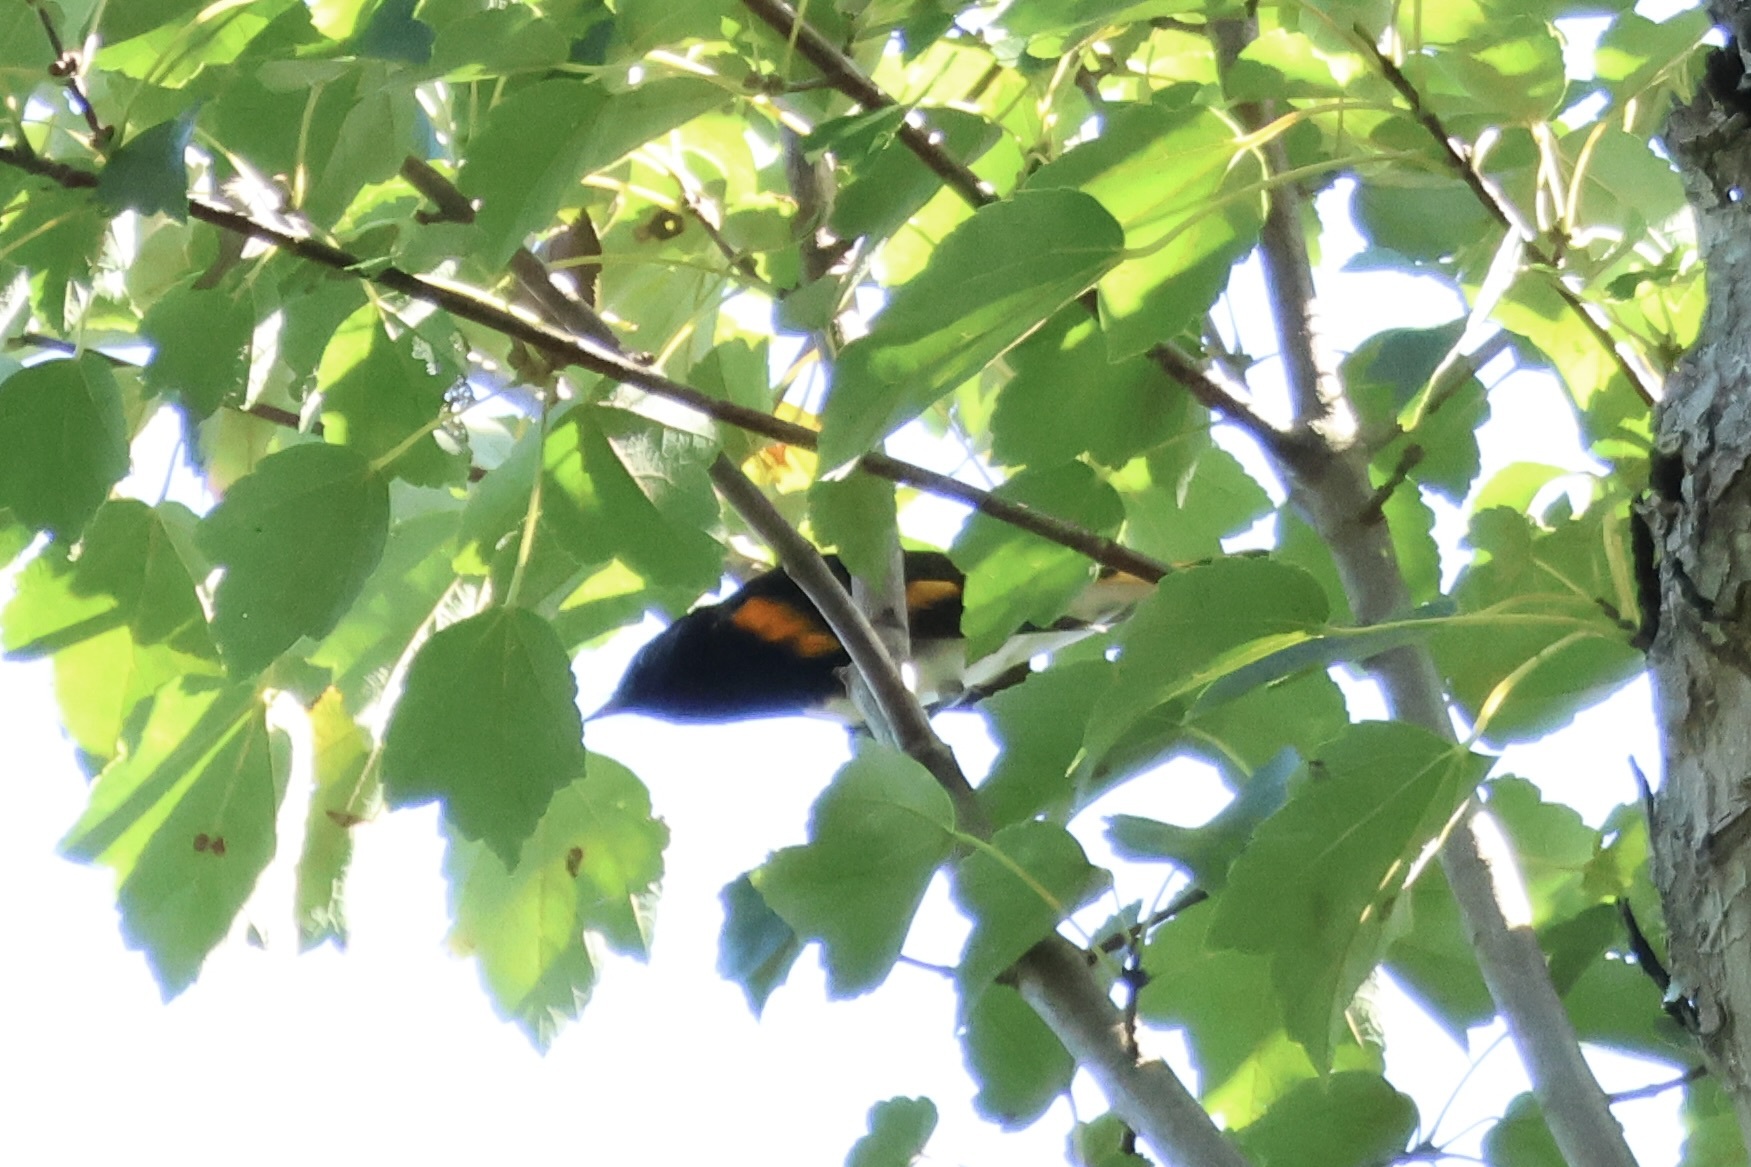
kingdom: Animalia
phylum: Chordata
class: Aves
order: Passeriformes
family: Parulidae
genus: Setophaga
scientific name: Setophaga ruticilla
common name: American redstart
